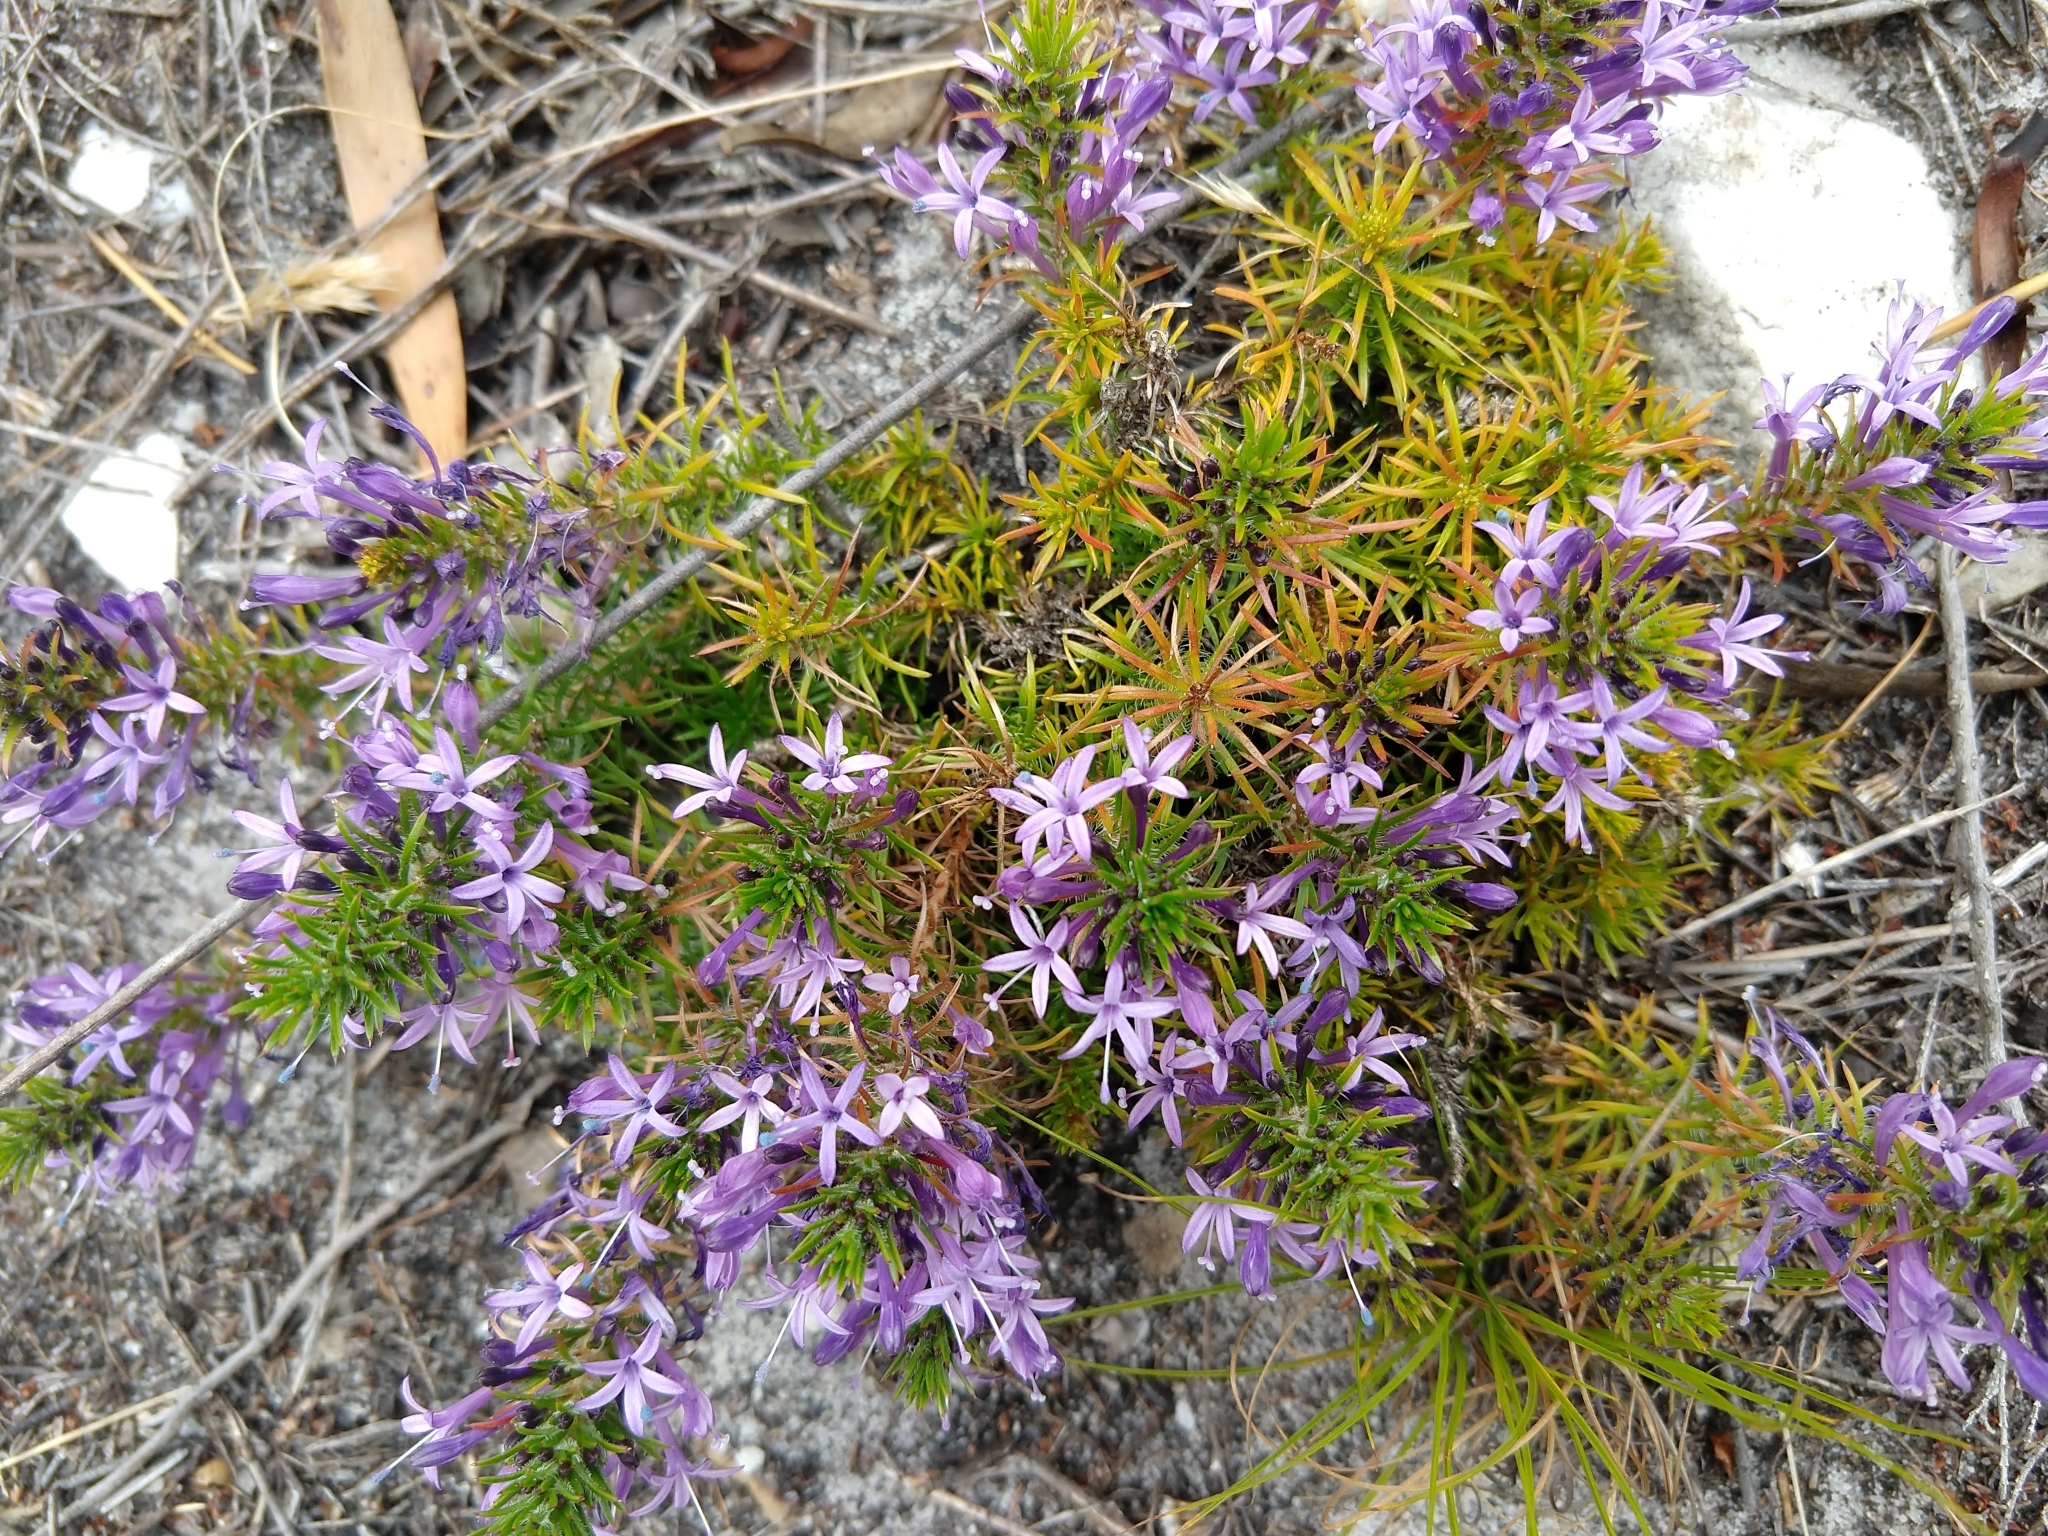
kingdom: Plantae
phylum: Tracheophyta
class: Magnoliopsida
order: Asterales
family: Campanulaceae
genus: Merciera
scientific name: Merciera azurea
